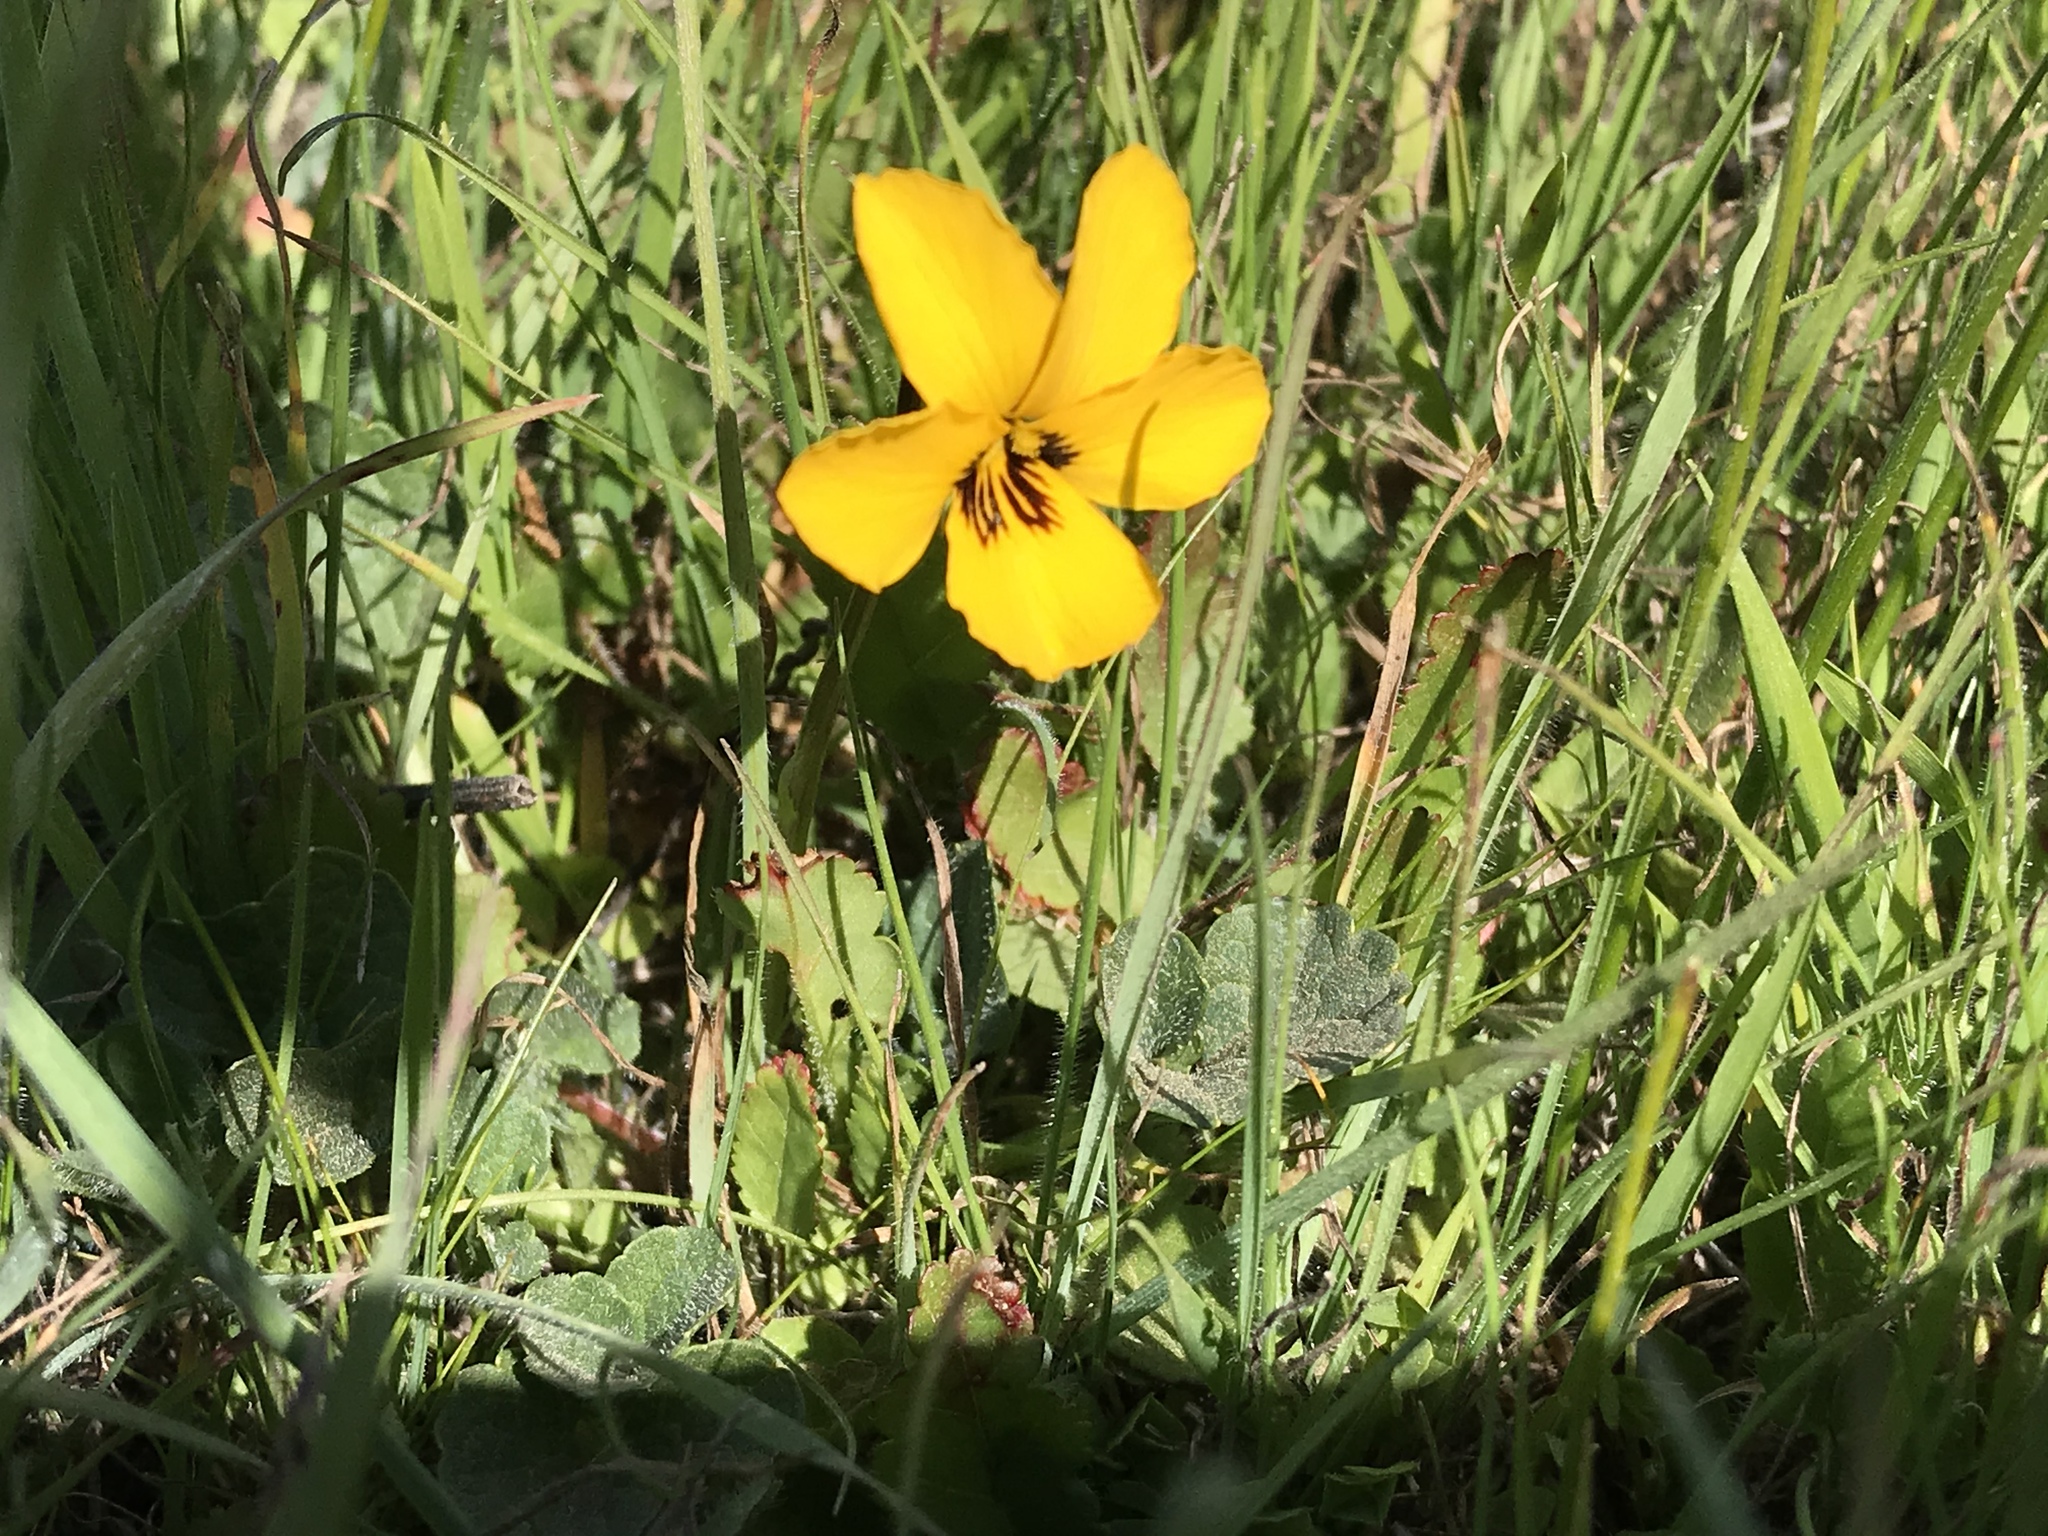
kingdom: Plantae
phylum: Tracheophyta
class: Magnoliopsida
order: Malpighiales
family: Violaceae
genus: Viola
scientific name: Viola pedunculata
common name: California golden violet
